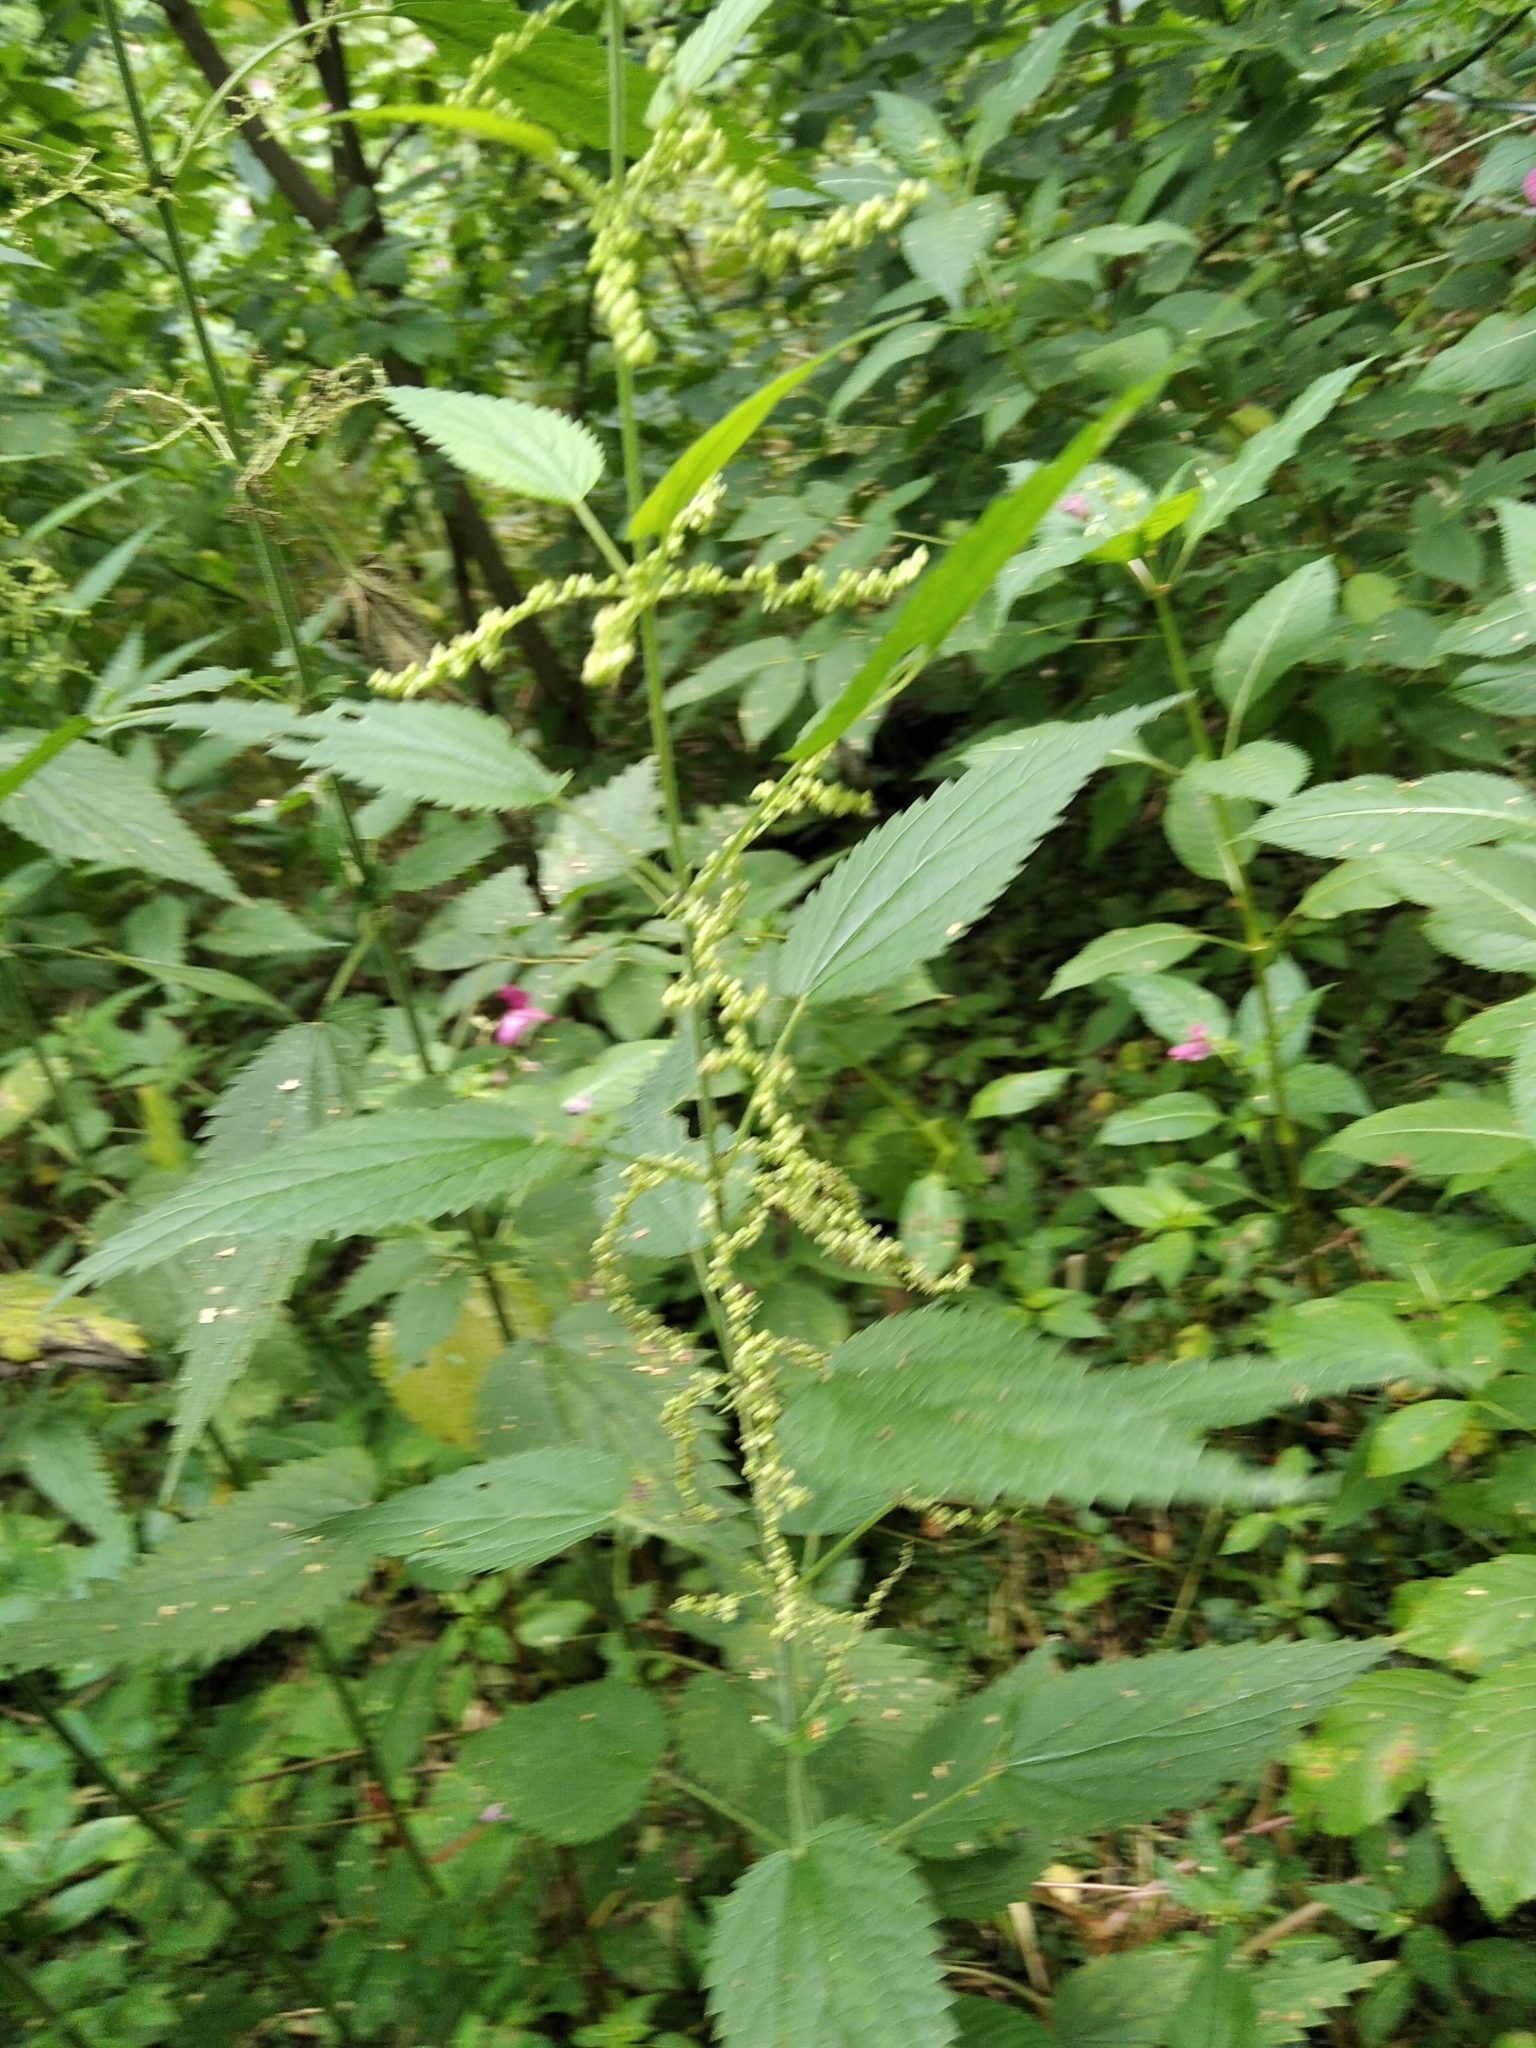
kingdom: Plantae
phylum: Tracheophyta
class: Magnoliopsida
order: Rosales
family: Urticaceae
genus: Urtica
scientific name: Urtica dioica
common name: Common nettle
